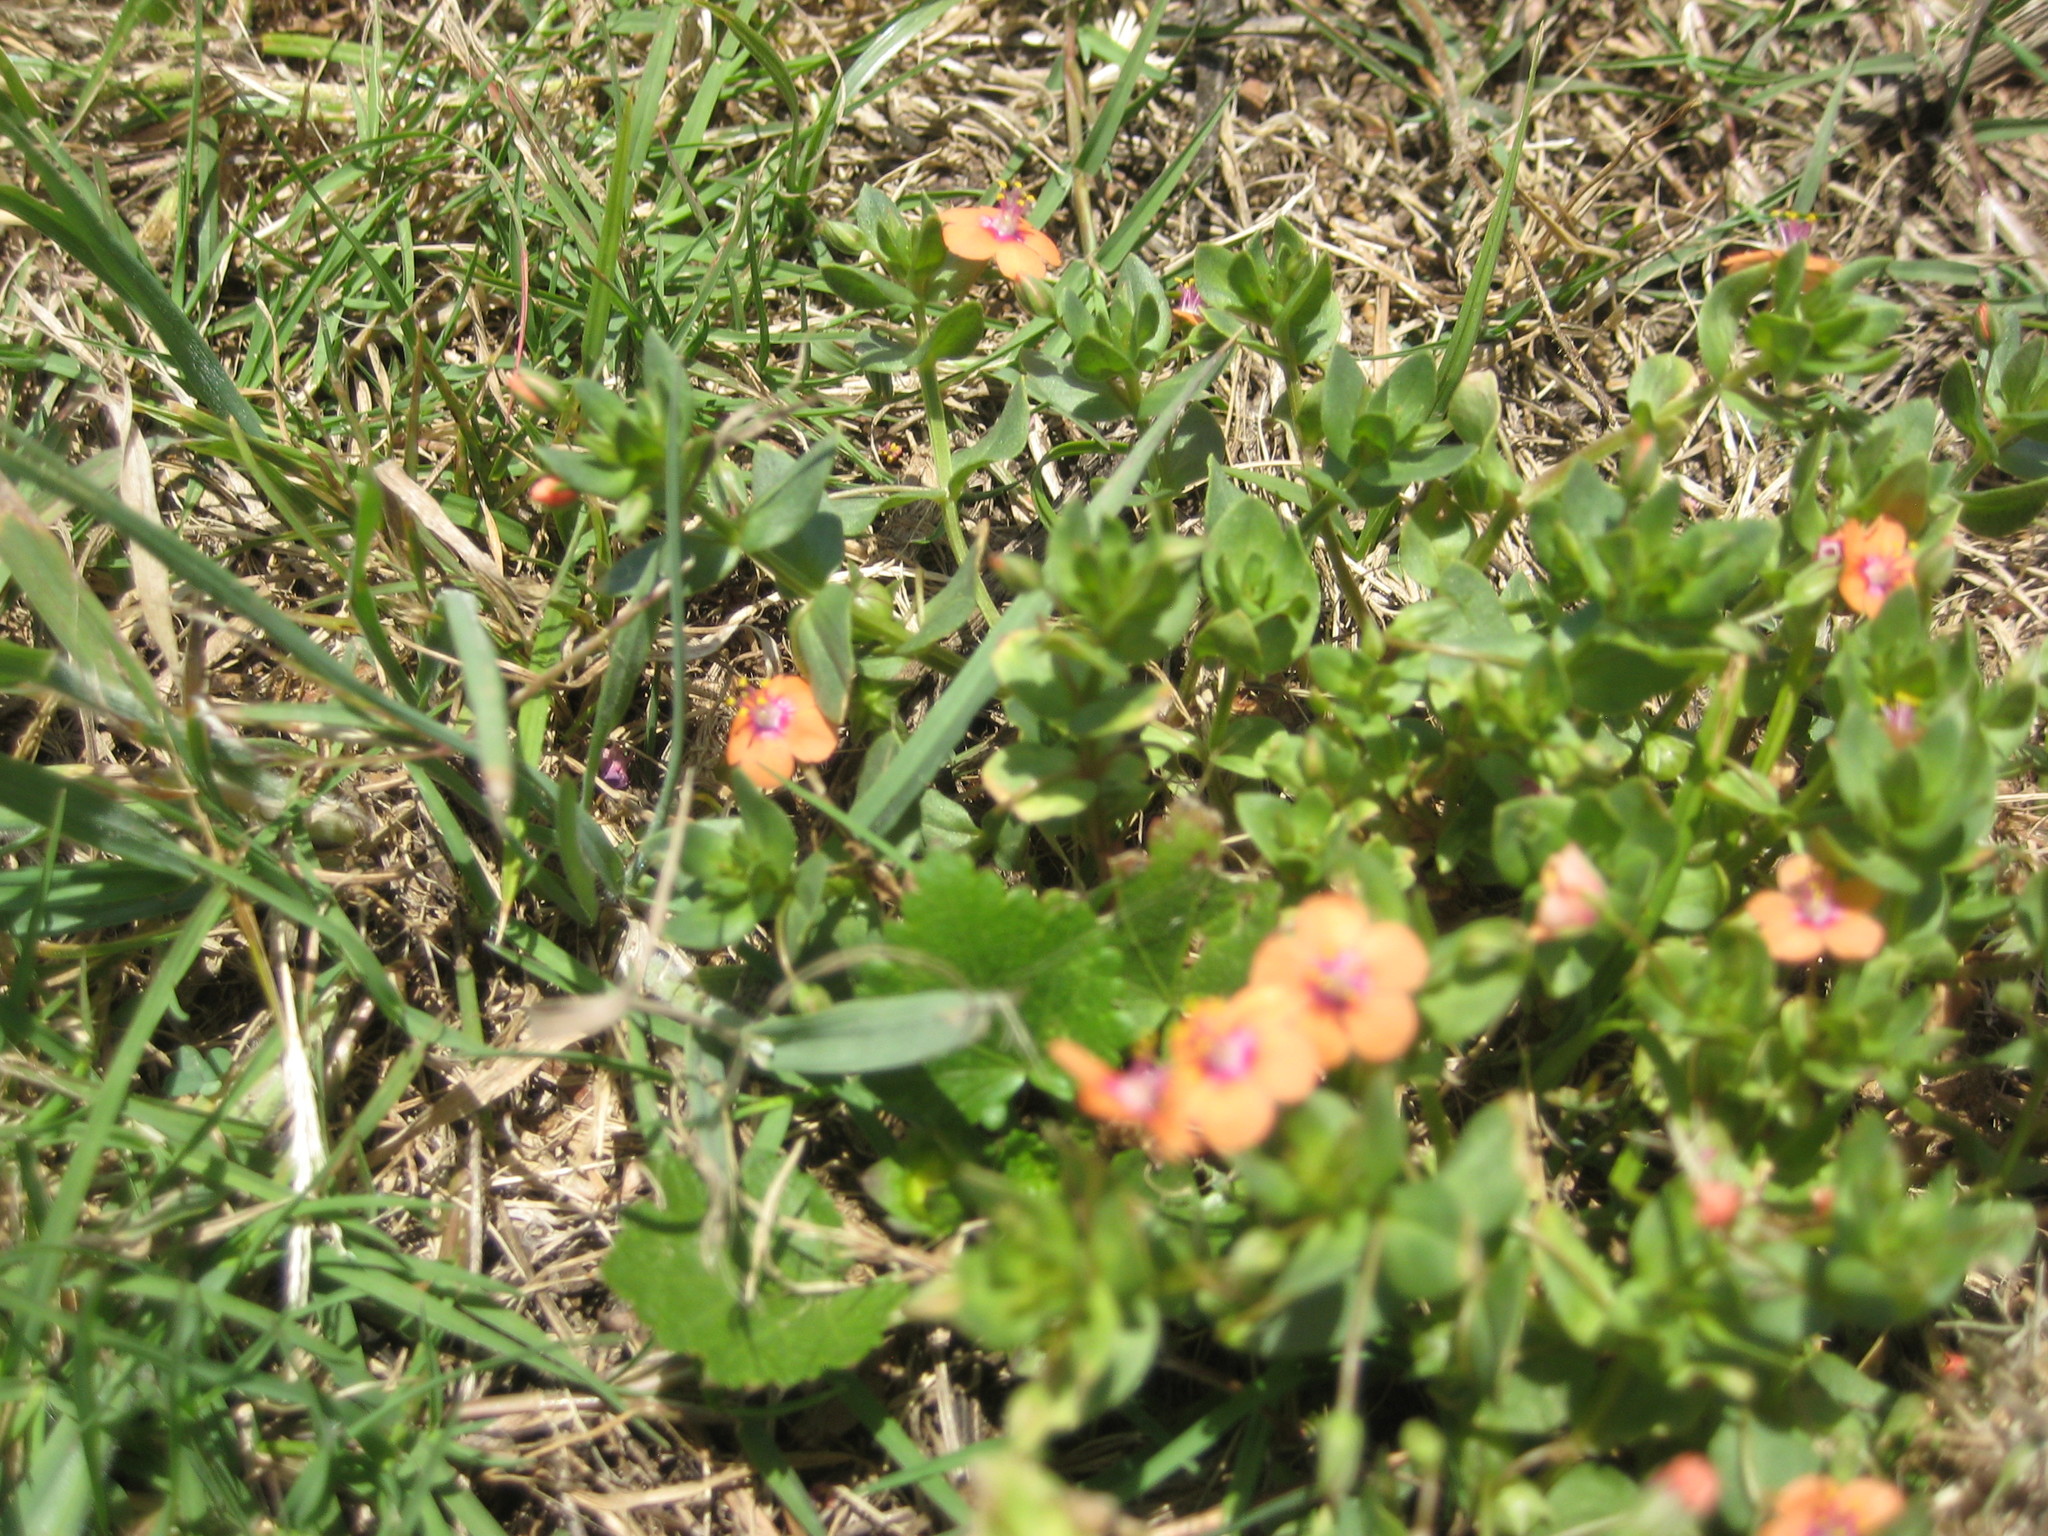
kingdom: Plantae
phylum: Tracheophyta
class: Magnoliopsida
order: Ericales
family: Primulaceae
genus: Lysimachia
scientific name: Lysimachia arvensis
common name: Scarlet pimpernel
